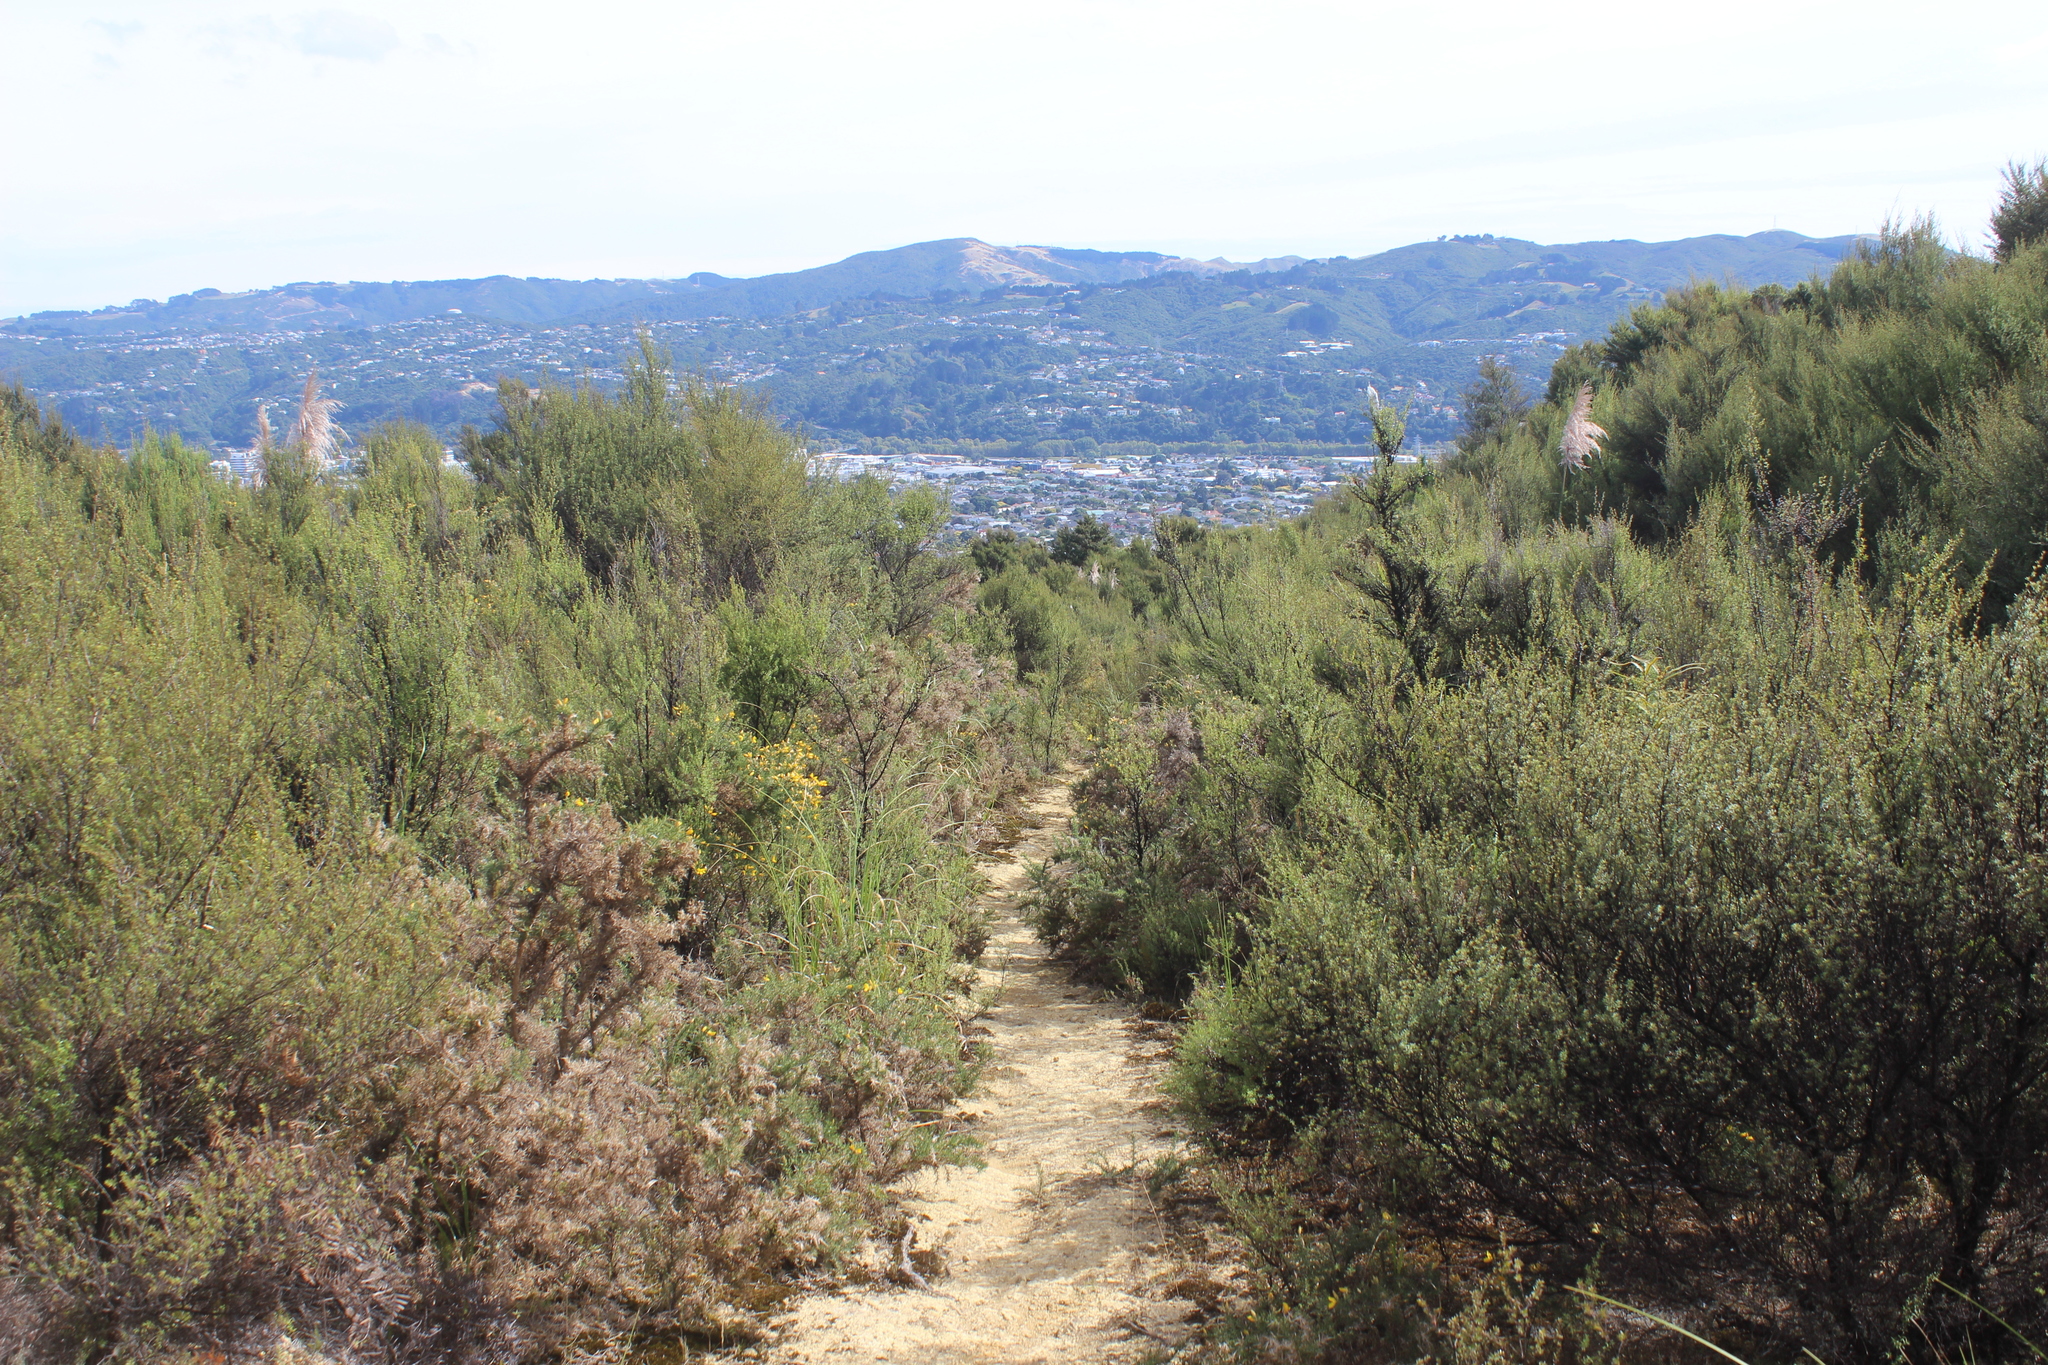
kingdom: Plantae
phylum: Tracheophyta
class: Magnoliopsida
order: Myrtales
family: Myrtaceae
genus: Leptospermum
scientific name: Leptospermum scoparium
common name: Broom tea-tree
